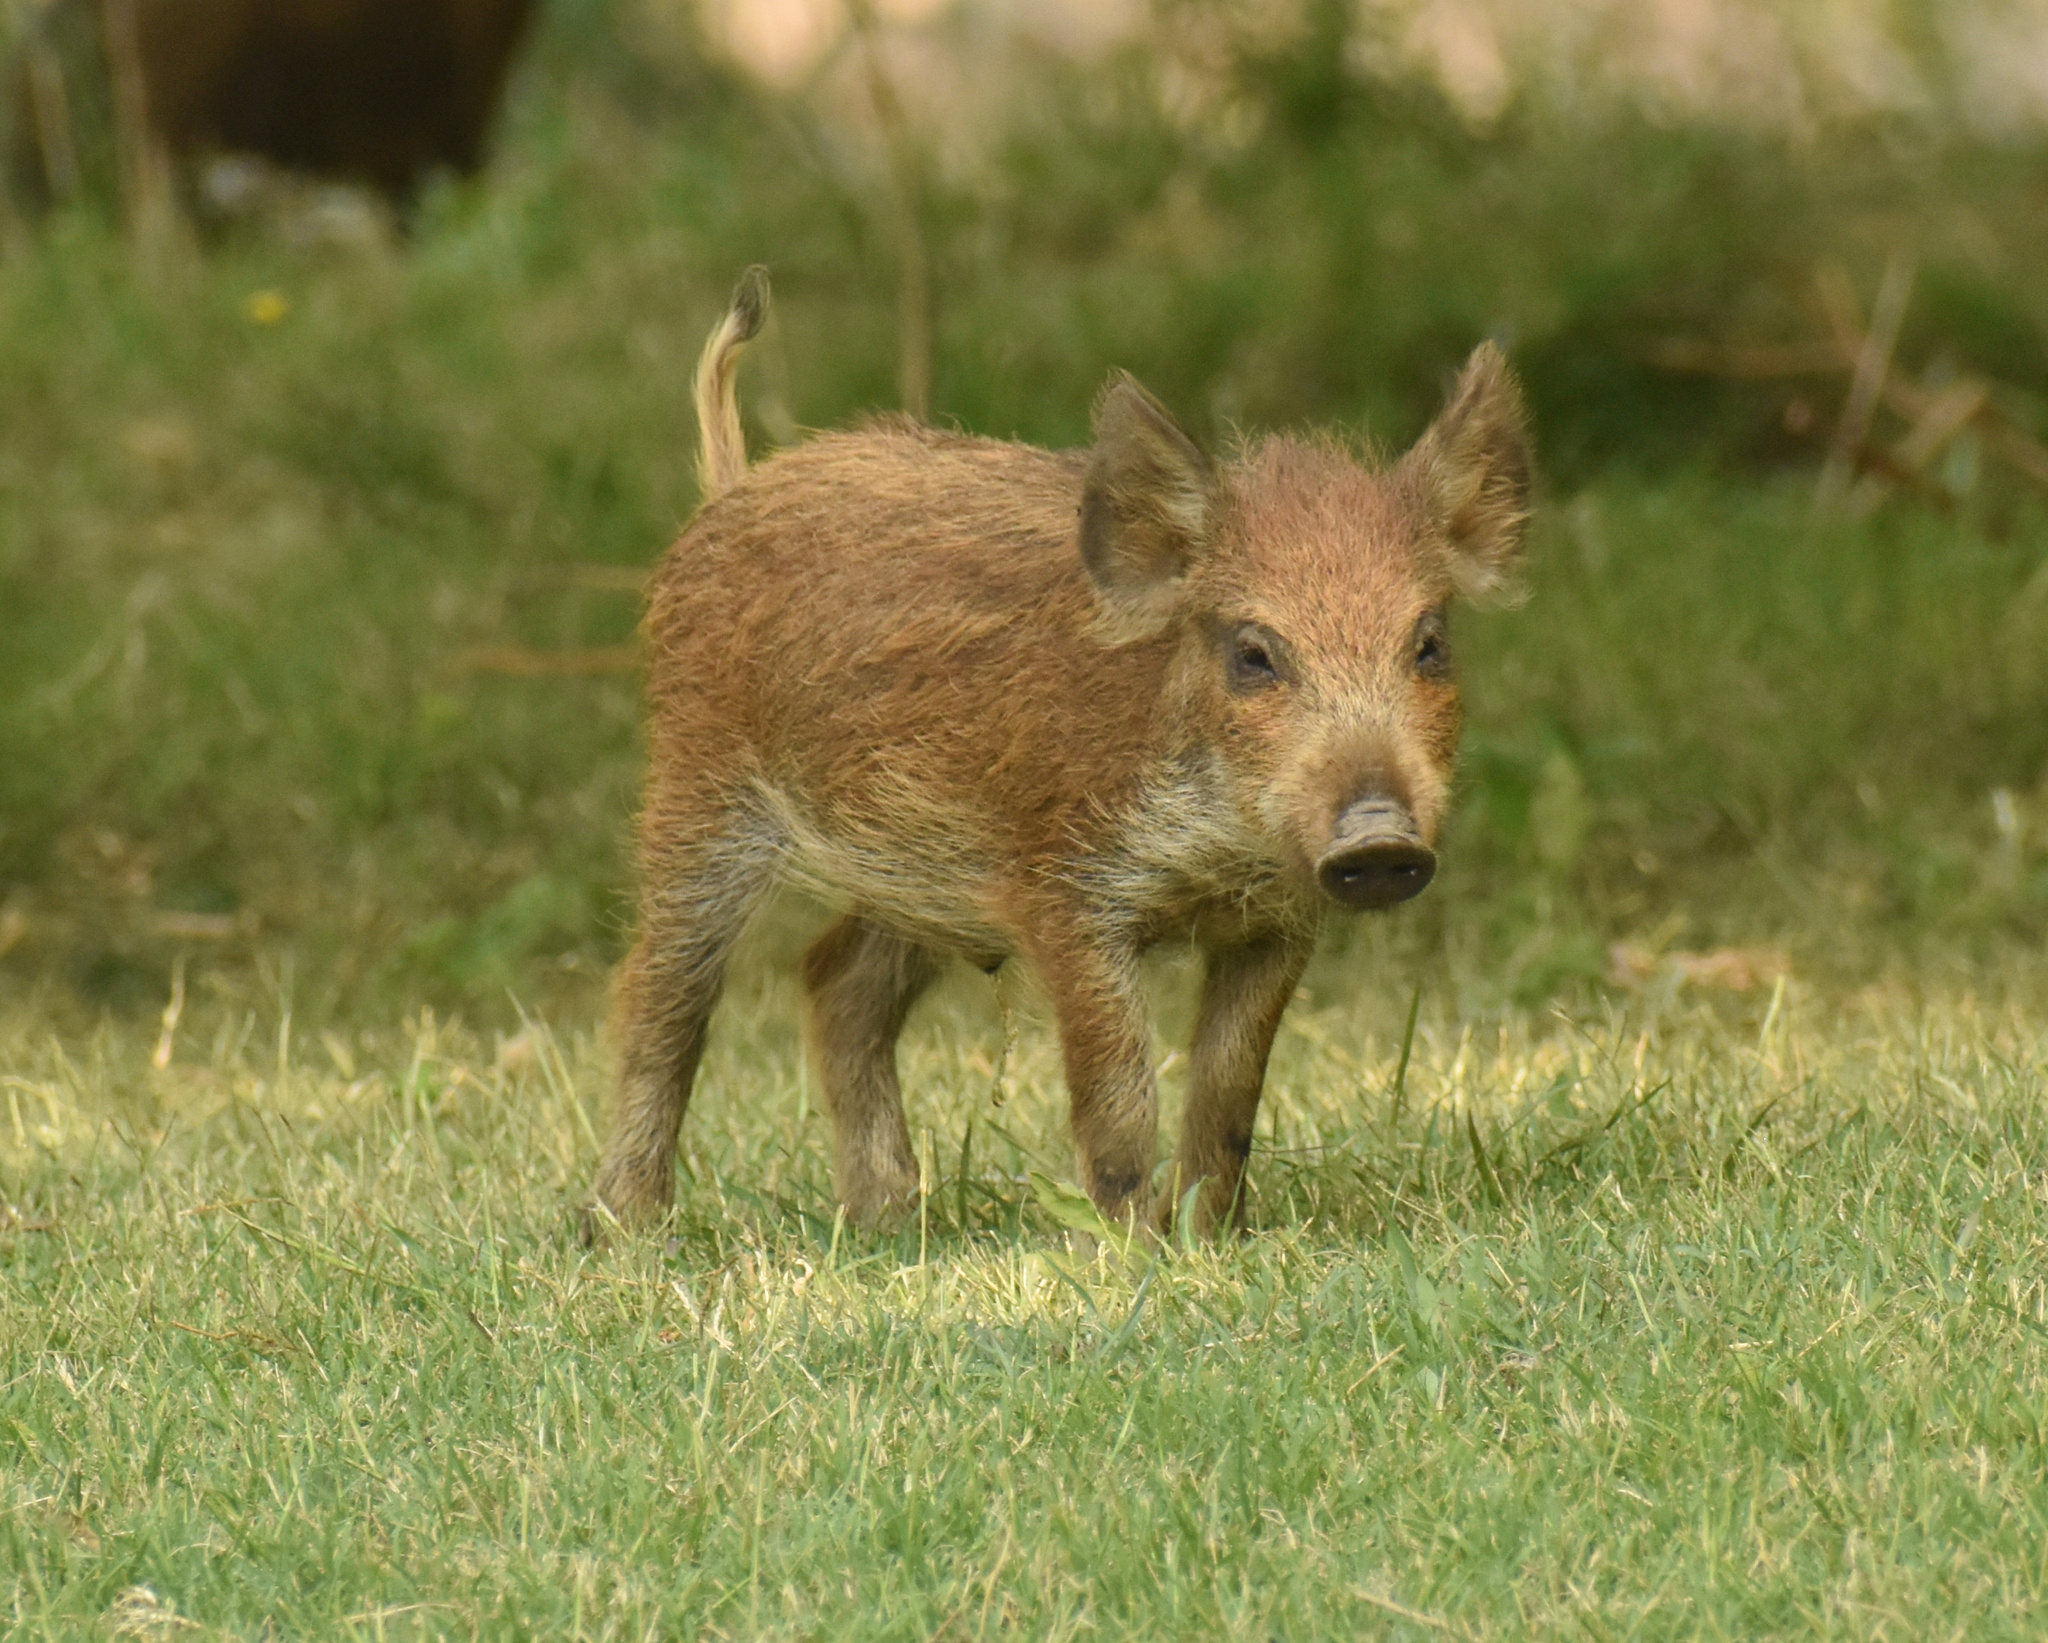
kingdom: Animalia
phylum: Chordata
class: Mammalia
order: Artiodactyla
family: Suidae
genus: Sus
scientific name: Sus scrofa
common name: Wild boar
